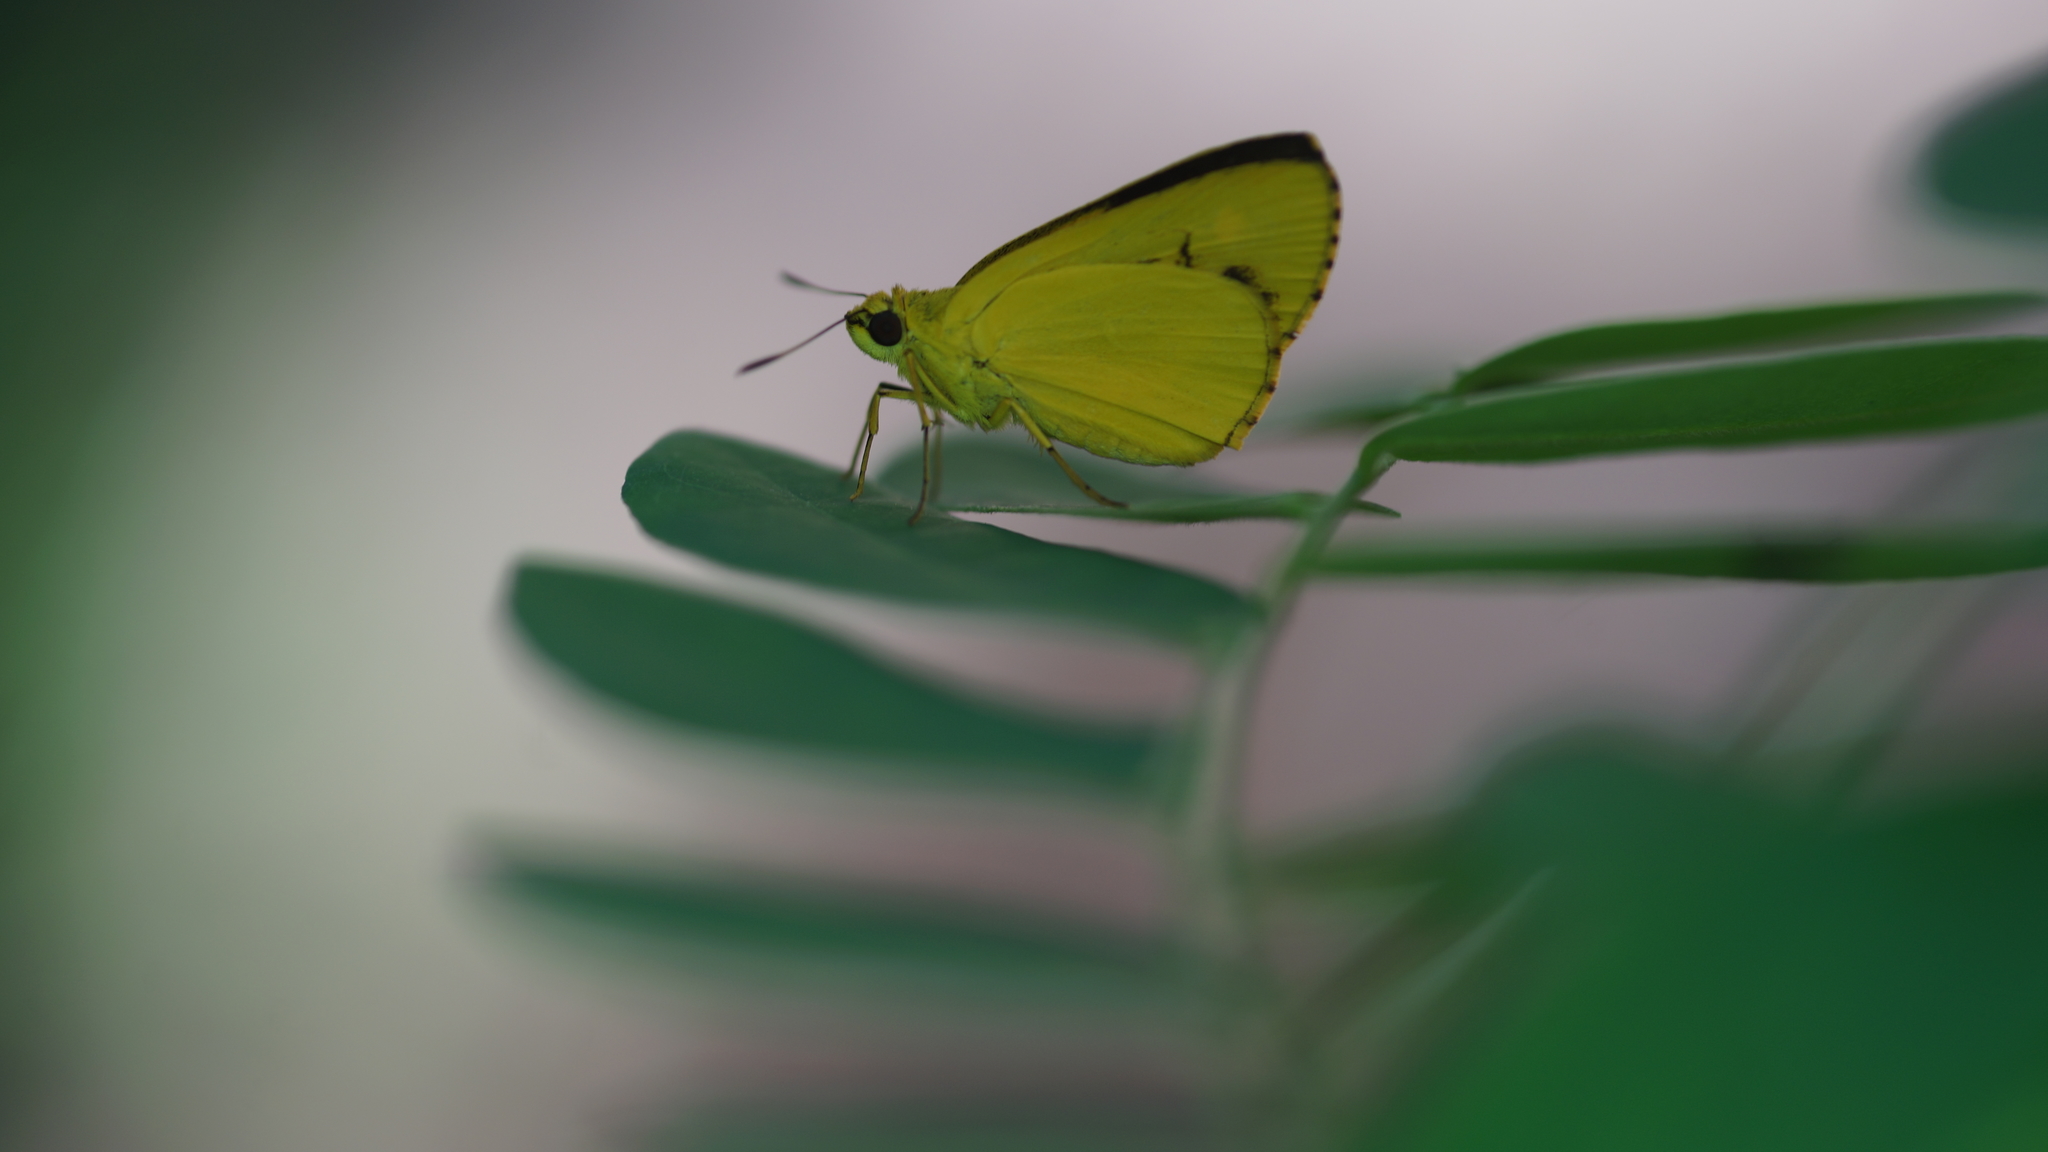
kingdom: Animalia
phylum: Arthropoda
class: Insecta
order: Lepidoptera
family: Hesperiidae
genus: Cupitha
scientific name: Cupitha purreea
